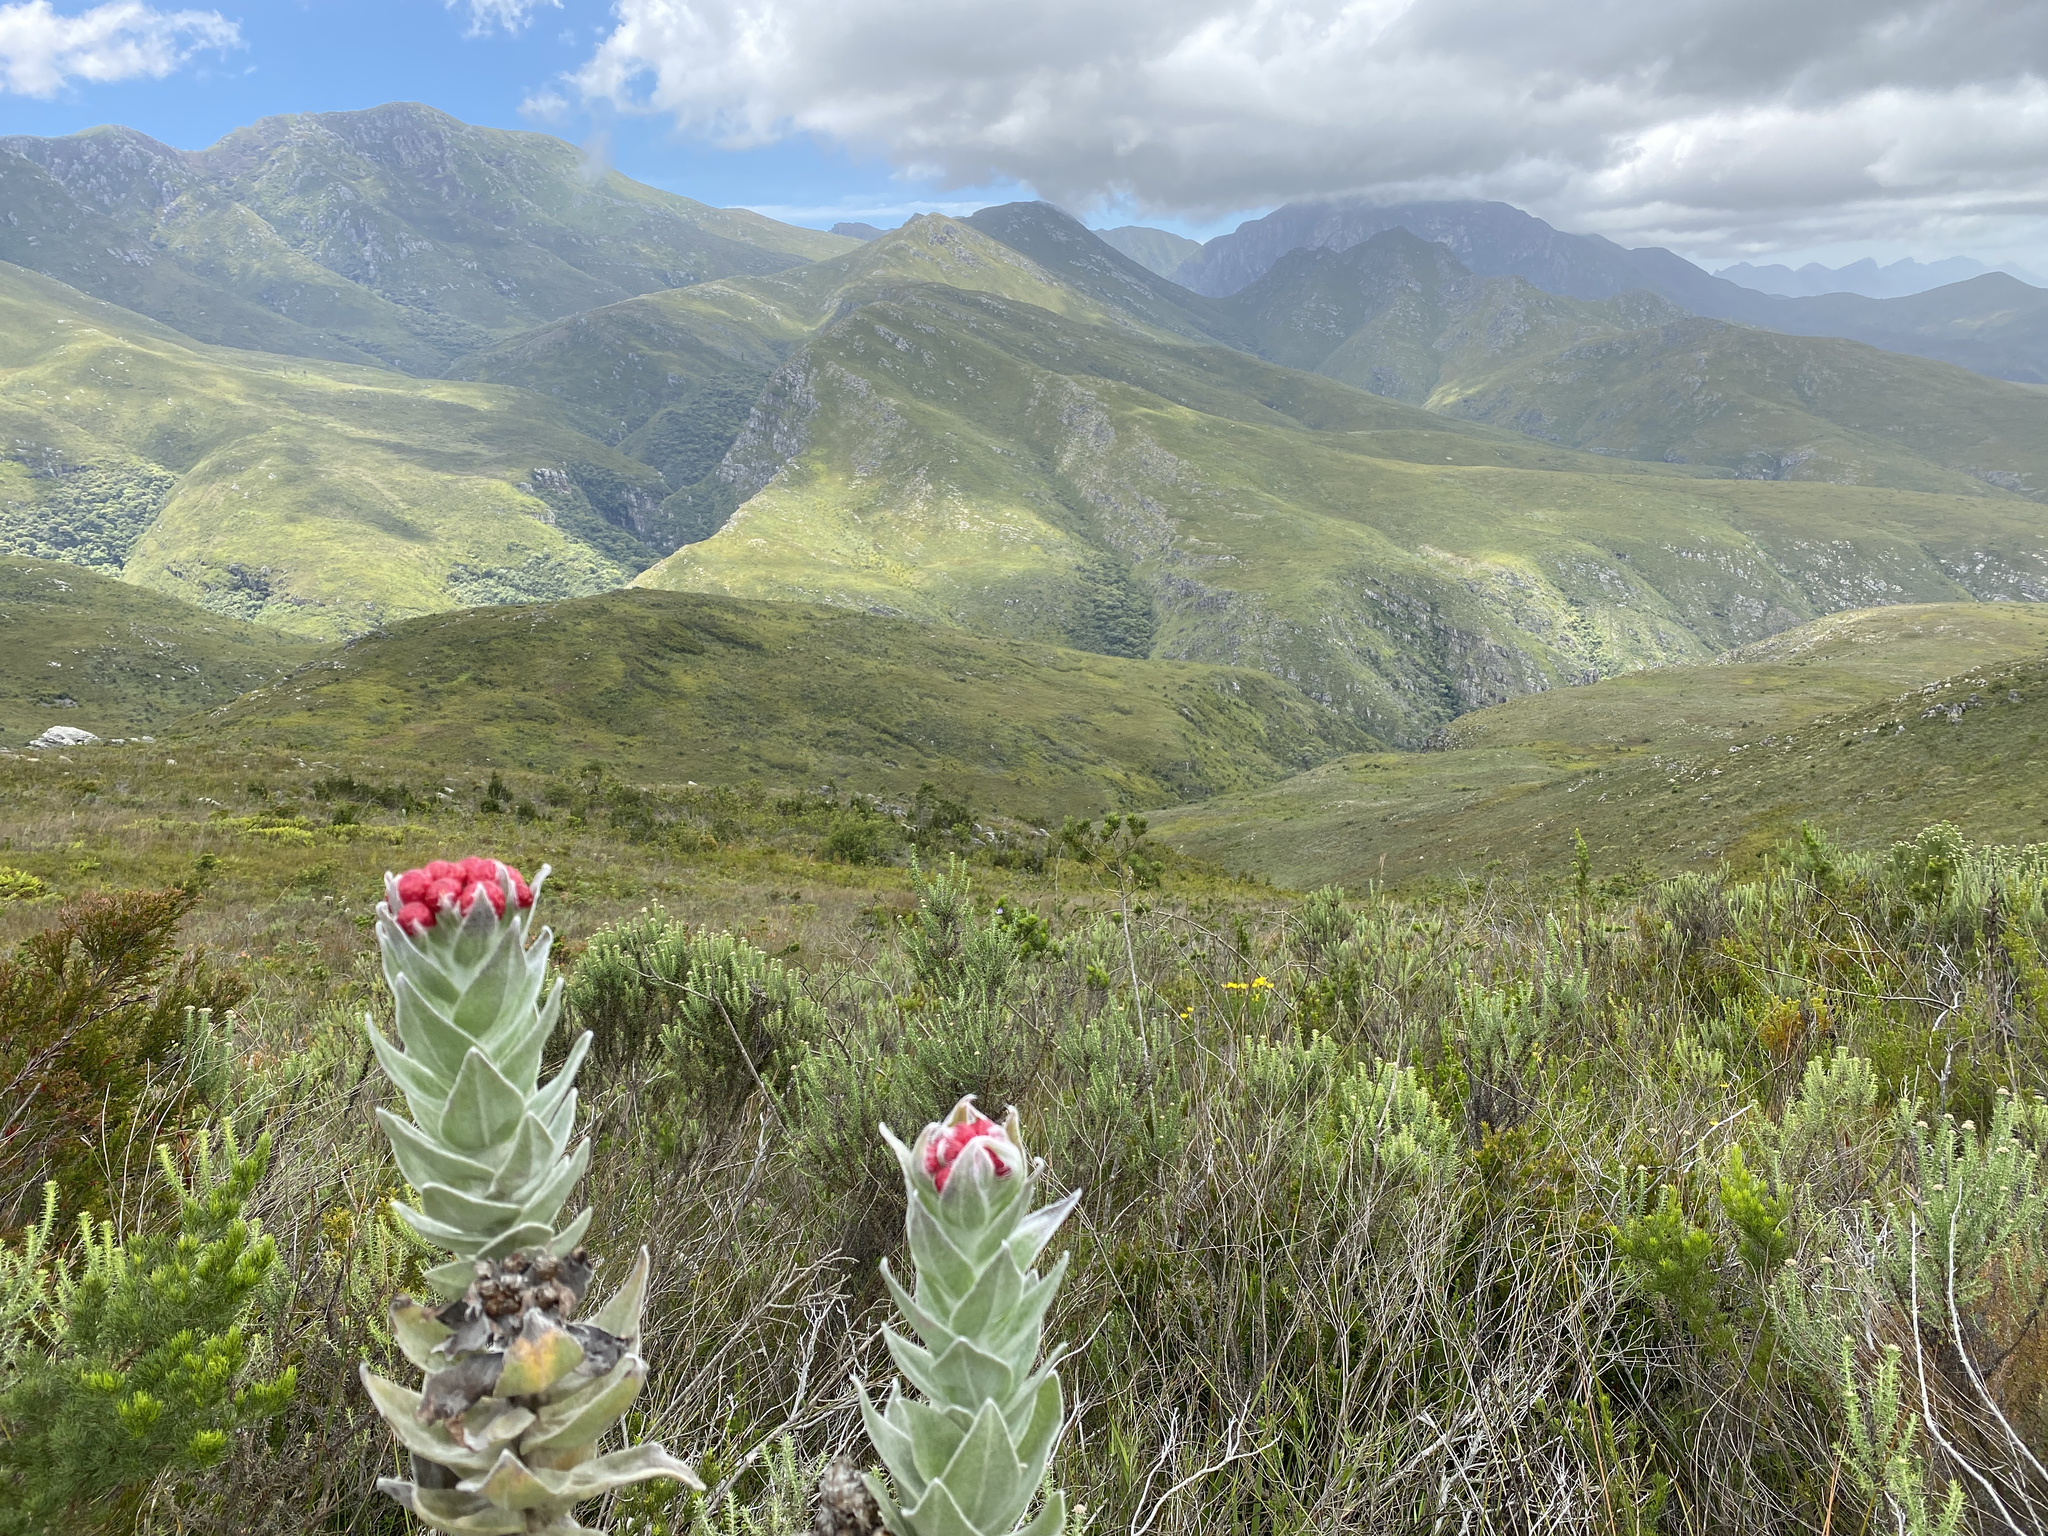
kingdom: Plantae
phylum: Tracheophyta
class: Magnoliopsida
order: Asterales
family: Asteraceae
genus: Syncarpha
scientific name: Syncarpha eximia
